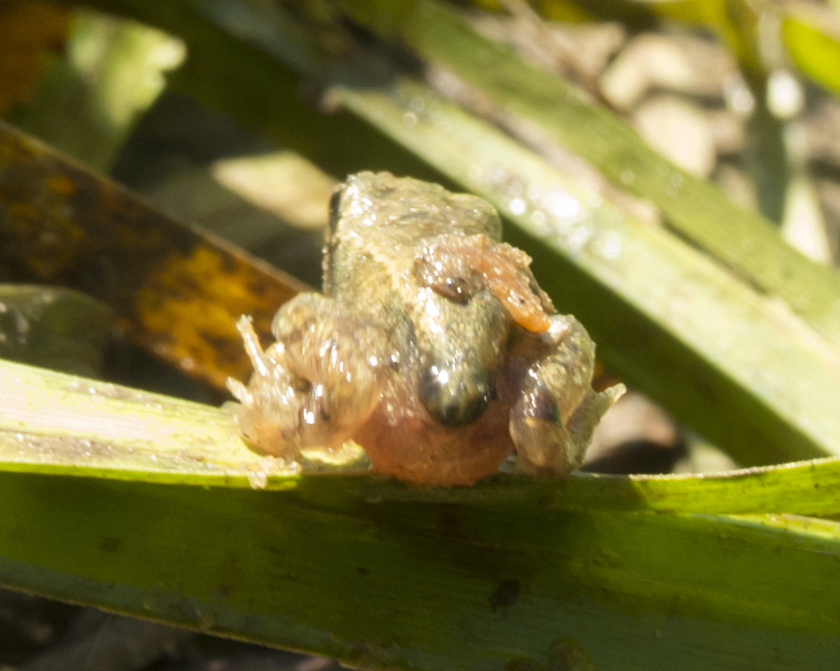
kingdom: Animalia
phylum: Chordata
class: Amphibia
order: Anura
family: Ranidae
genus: Rana
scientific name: Rana temporaria
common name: Common frog
